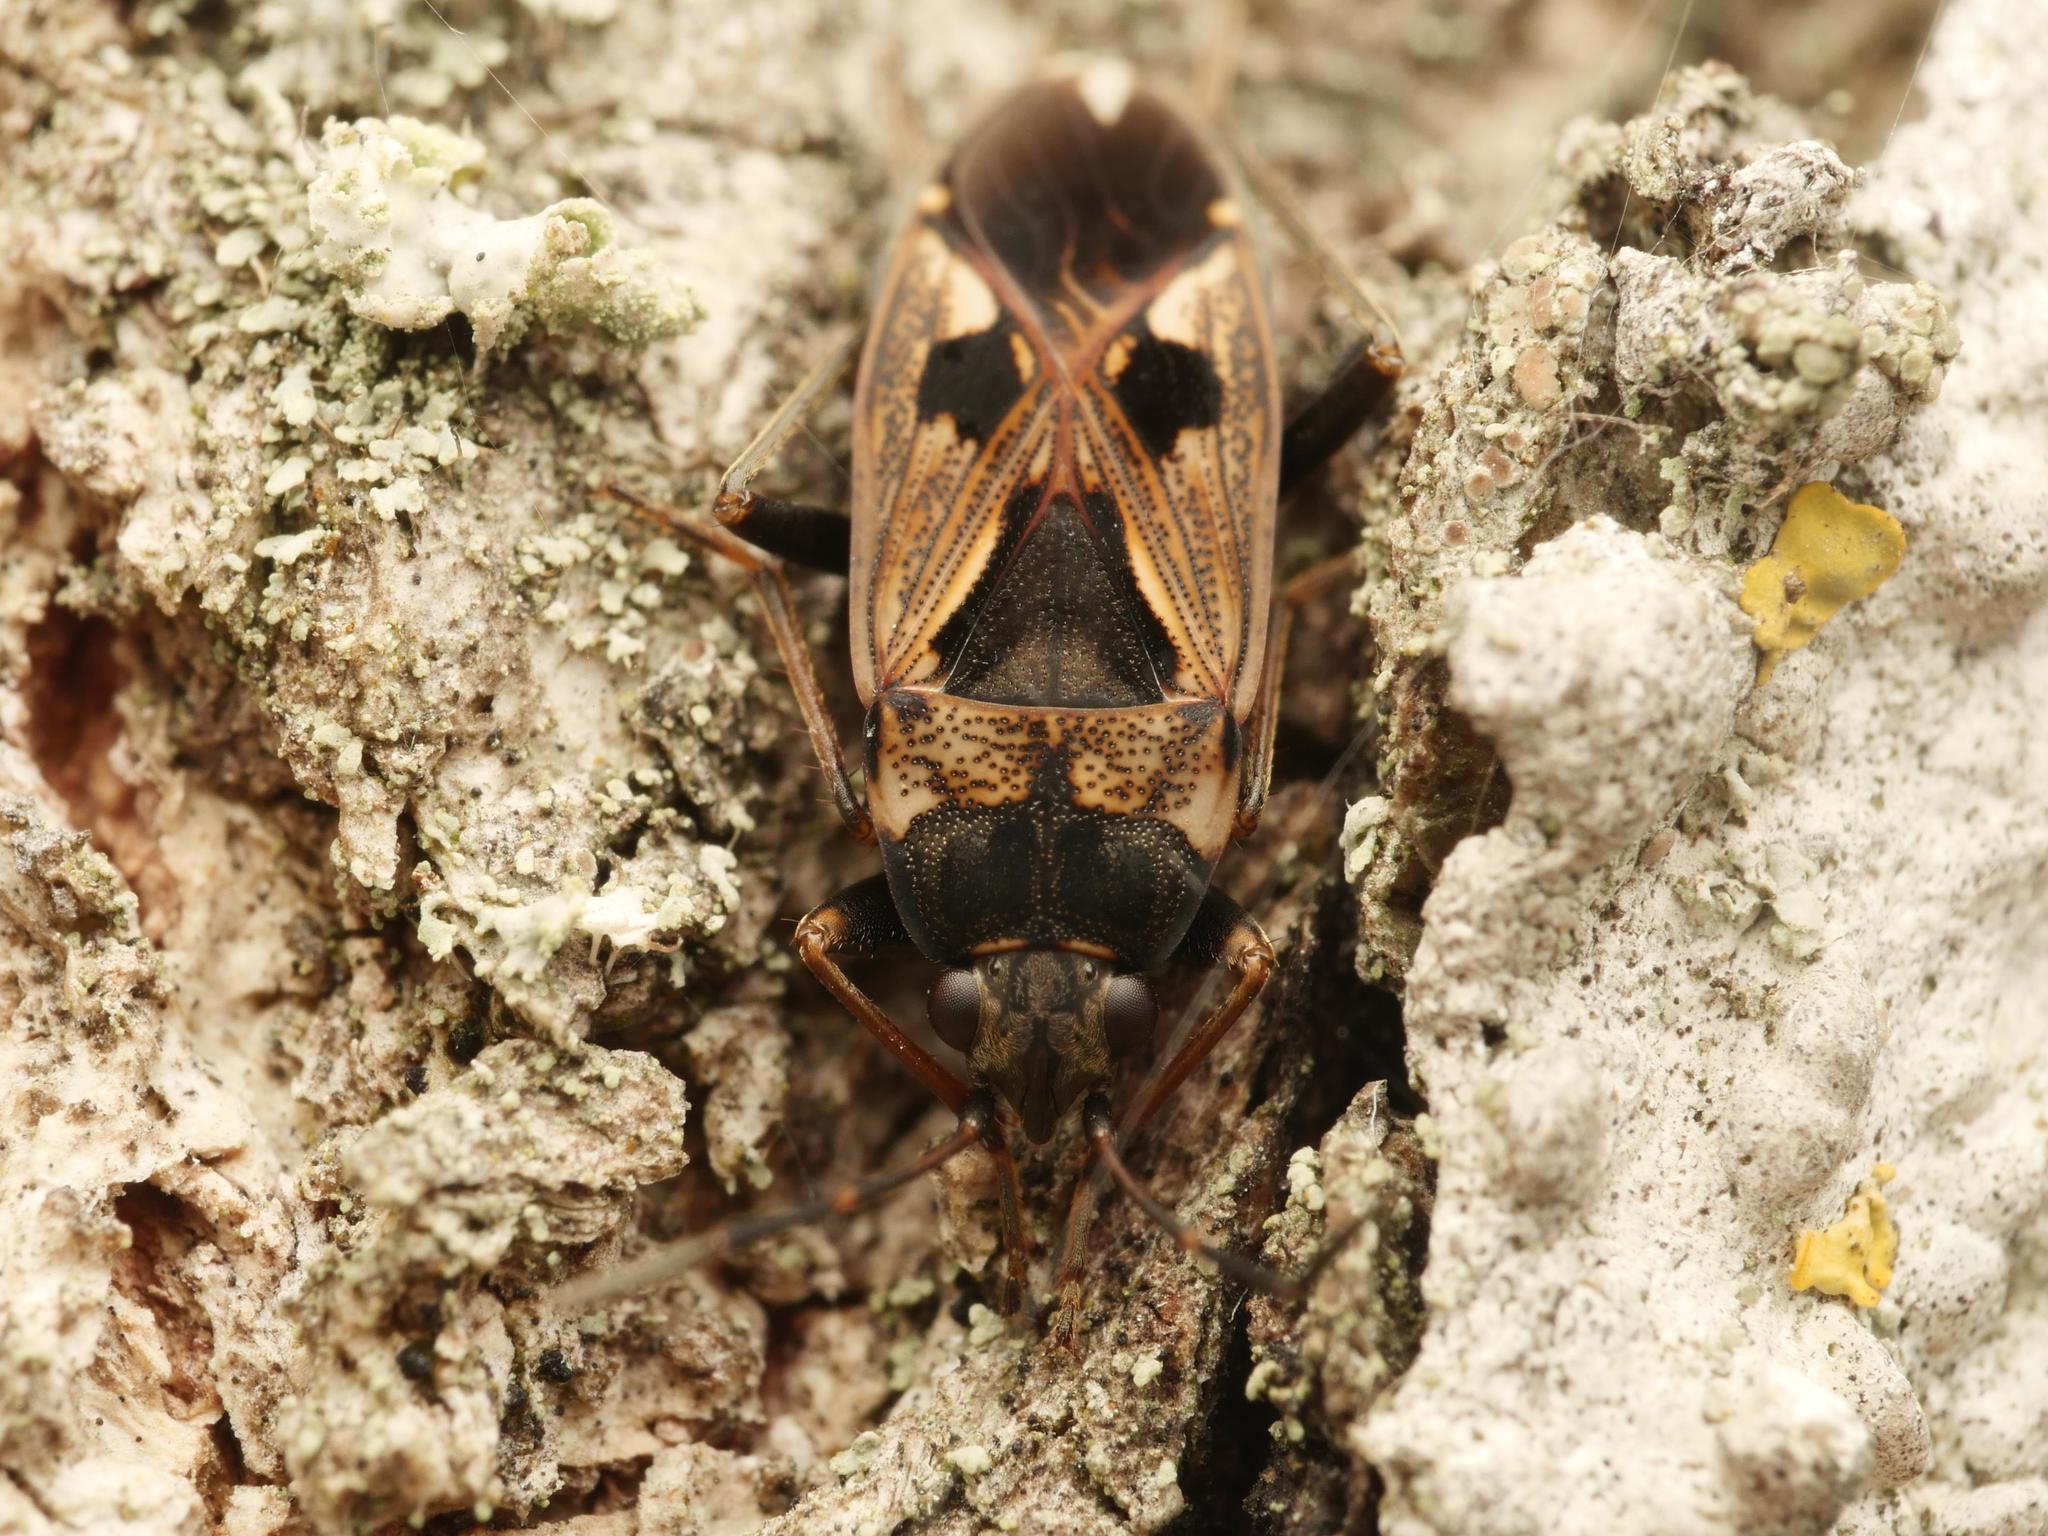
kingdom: Animalia
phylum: Arthropoda
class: Insecta
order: Hemiptera
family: Rhyparochromidae
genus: Rhyparochromus
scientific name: Rhyparochromus vulgaris
